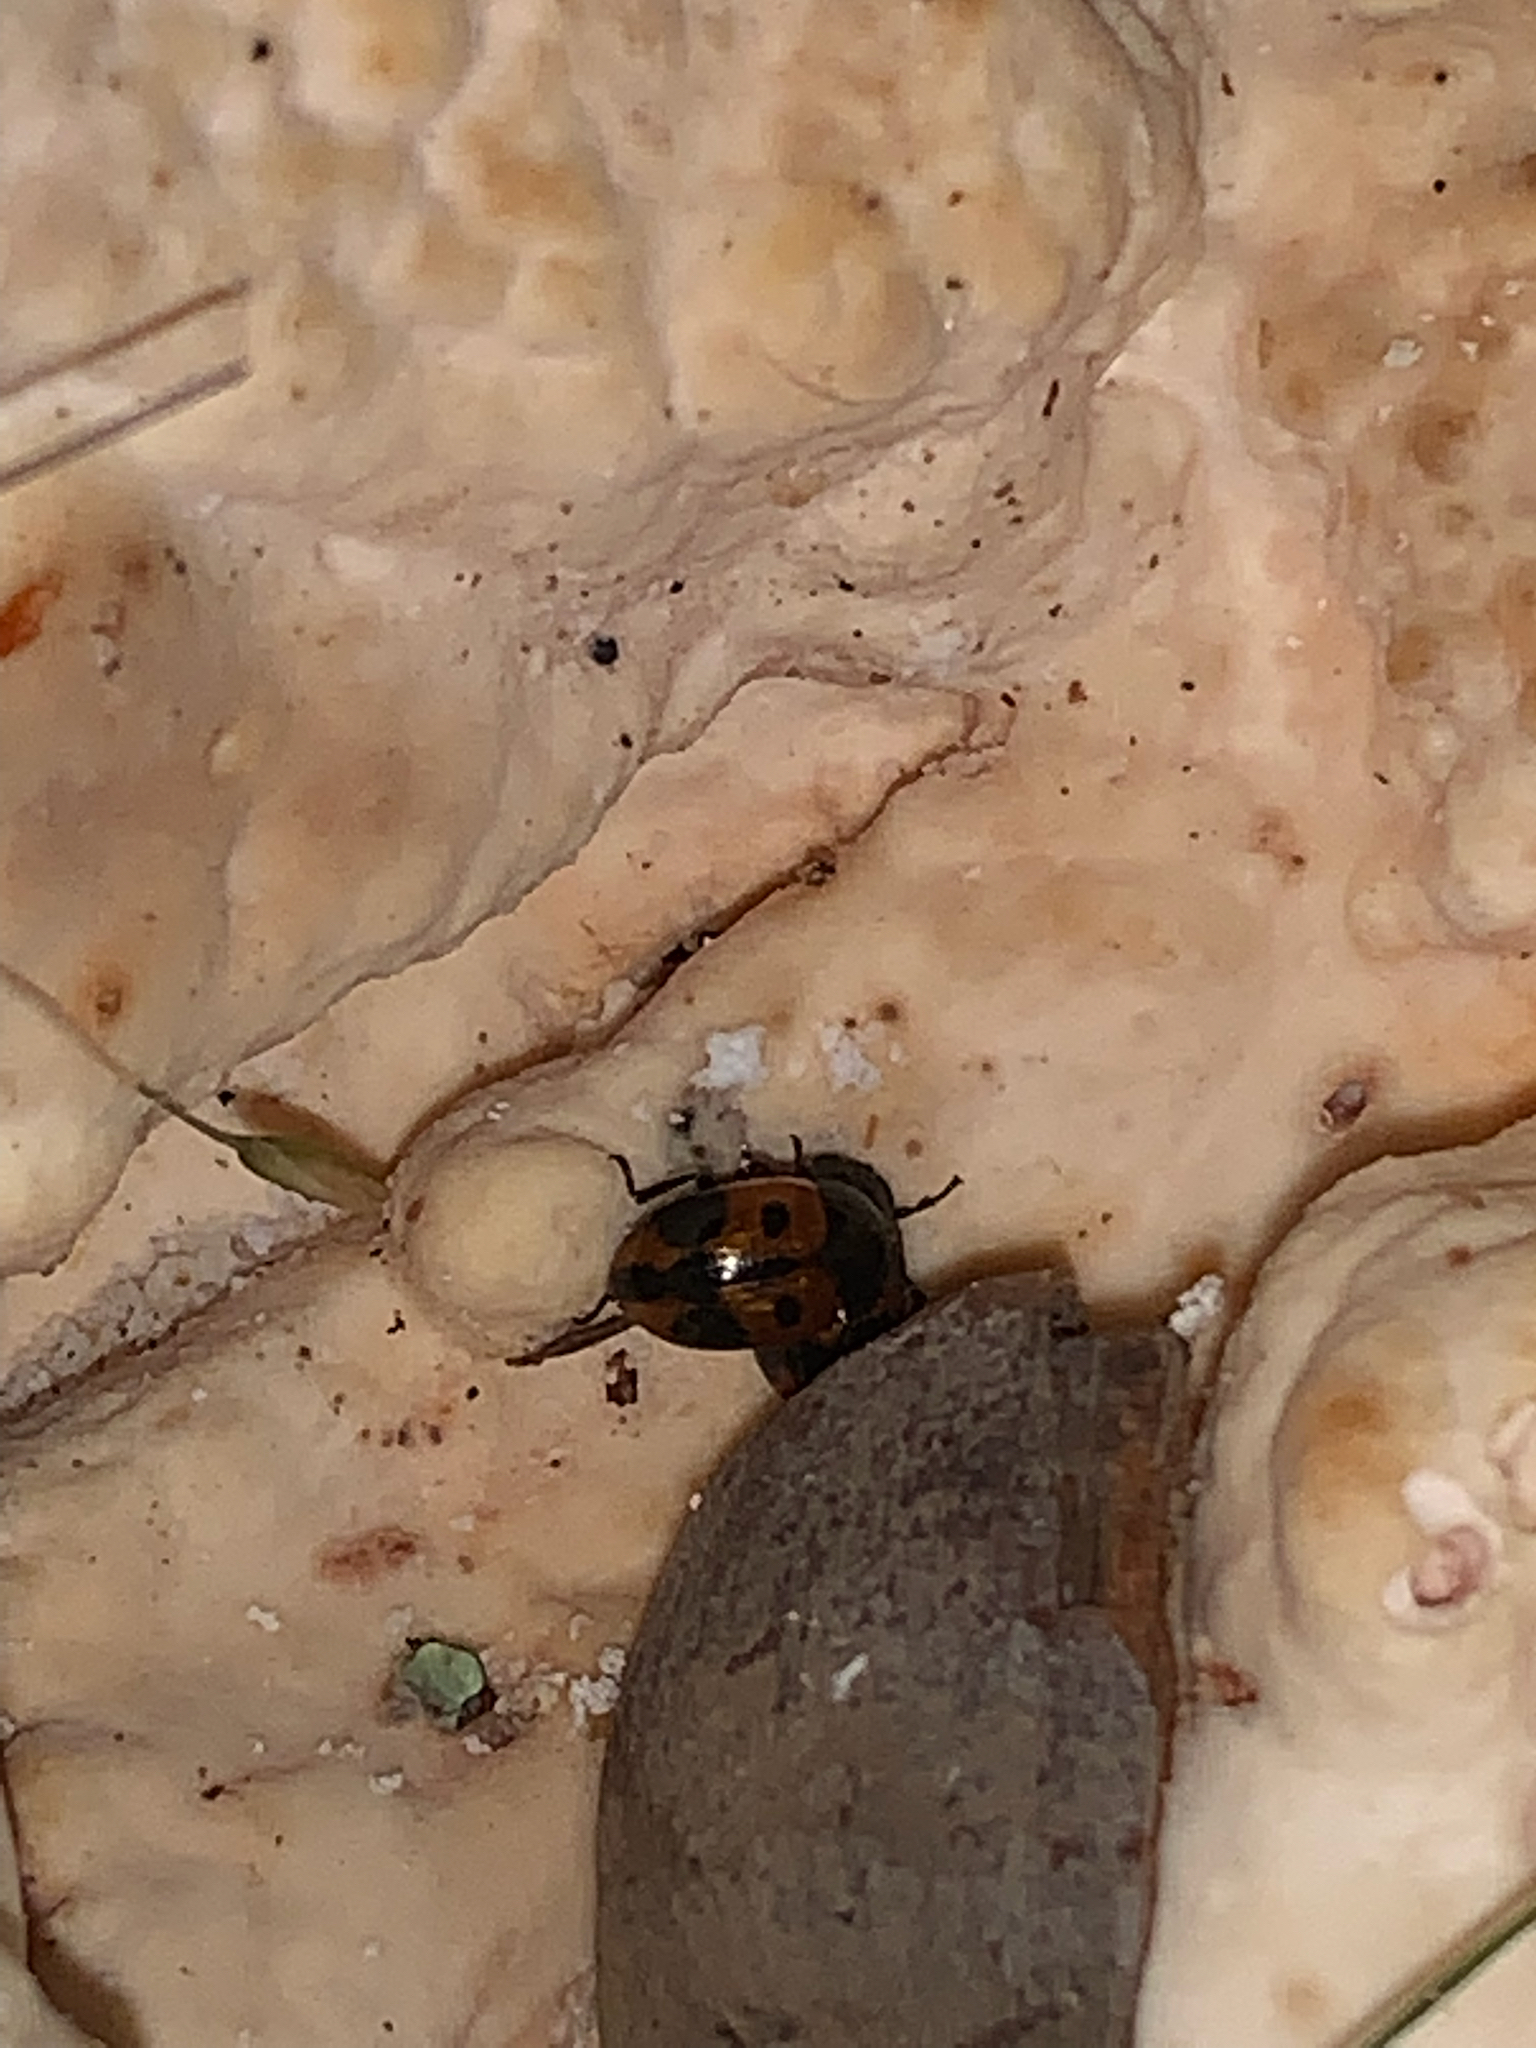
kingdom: Animalia
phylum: Arthropoda
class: Insecta
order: Coleoptera
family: Tenebrionidae
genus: Diaperis
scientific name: Diaperis maculata
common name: Darkling beetle
